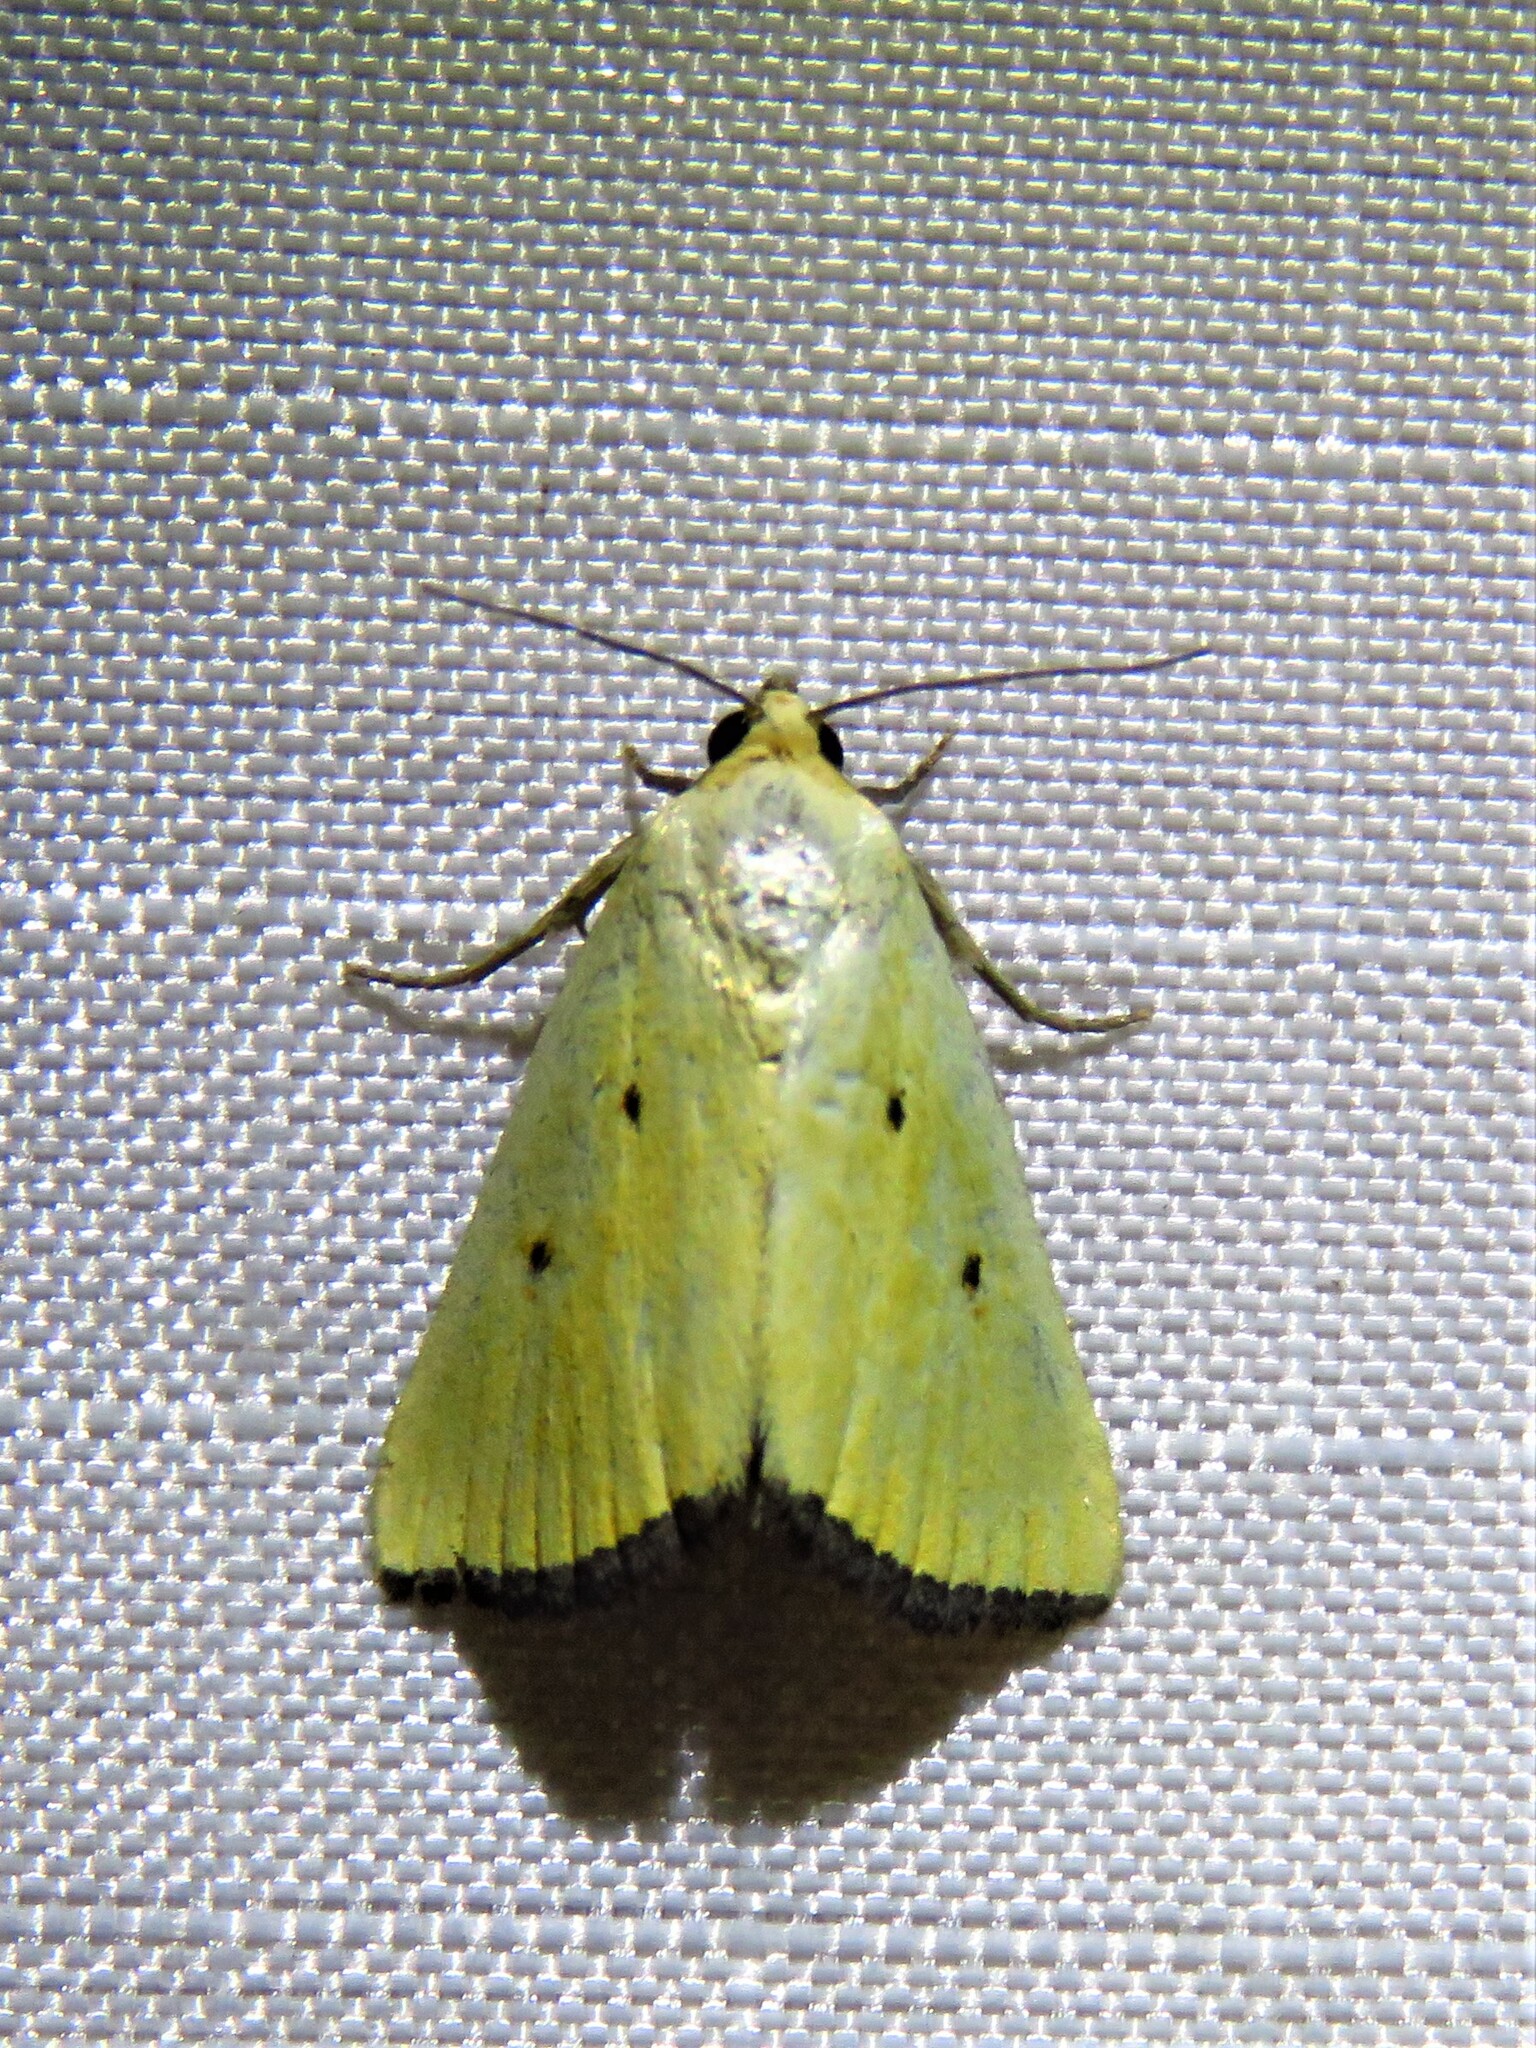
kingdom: Animalia
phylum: Arthropoda
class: Insecta
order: Lepidoptera
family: Noctuidae
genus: Marimatha
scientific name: Marimatha nigrofimbria
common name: Black-bordered lemon moth
